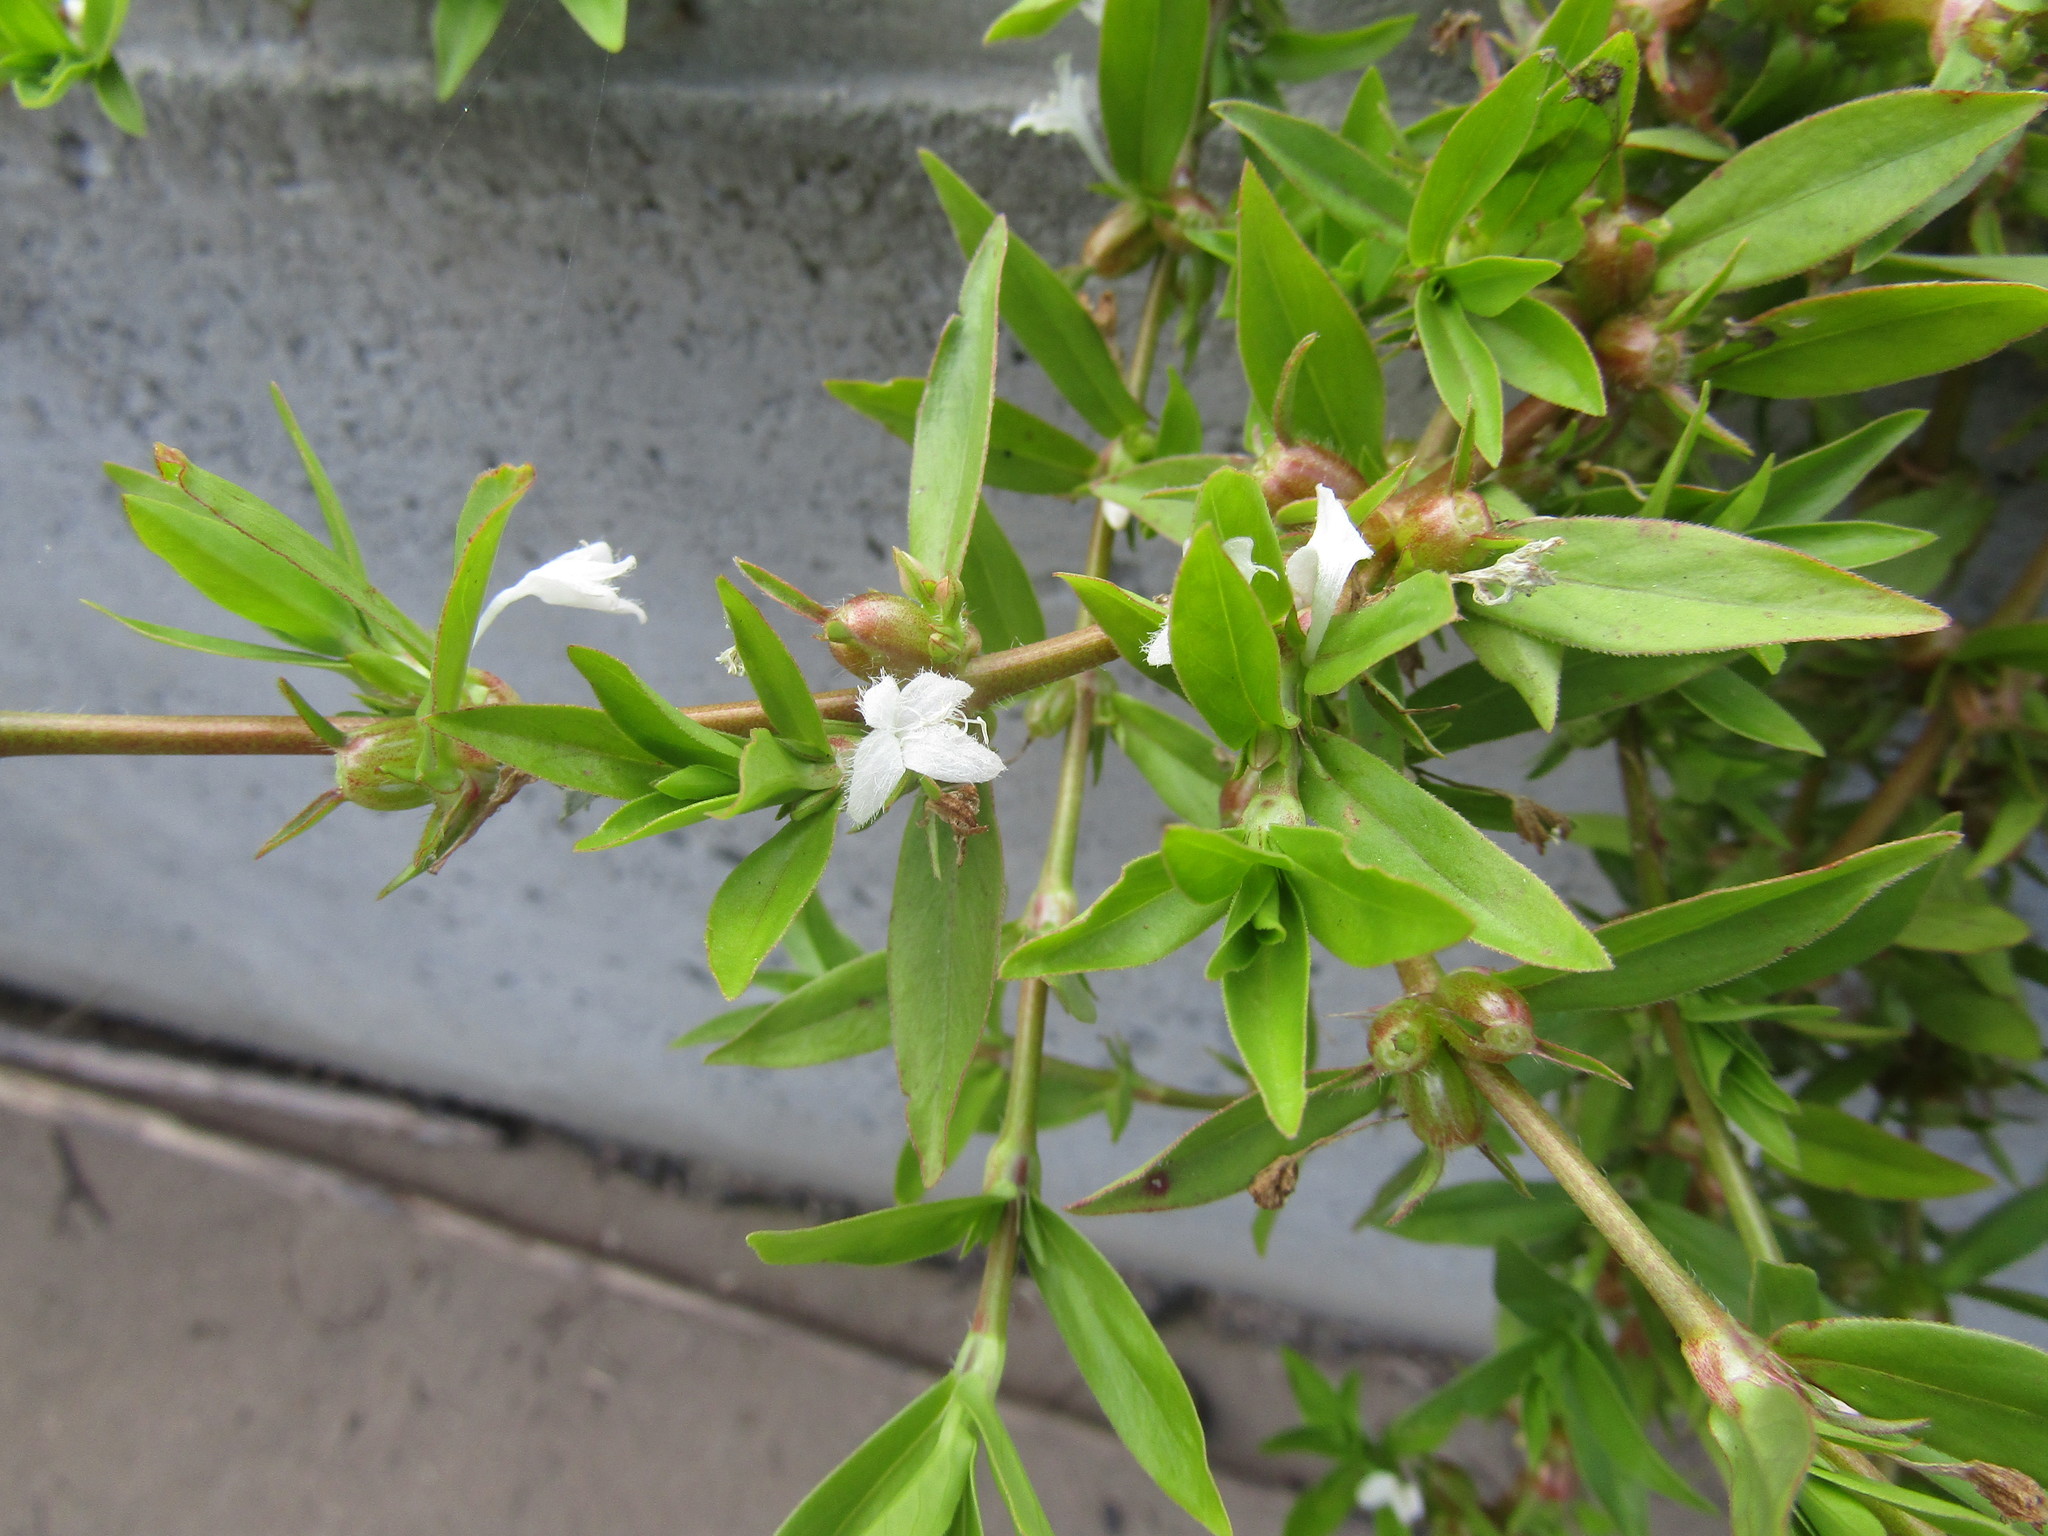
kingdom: Plantae
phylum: Tracheophyta
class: Magnoliopsida
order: Gentianales
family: Rubiaceae
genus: Diodia
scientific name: Diodia virginiana
